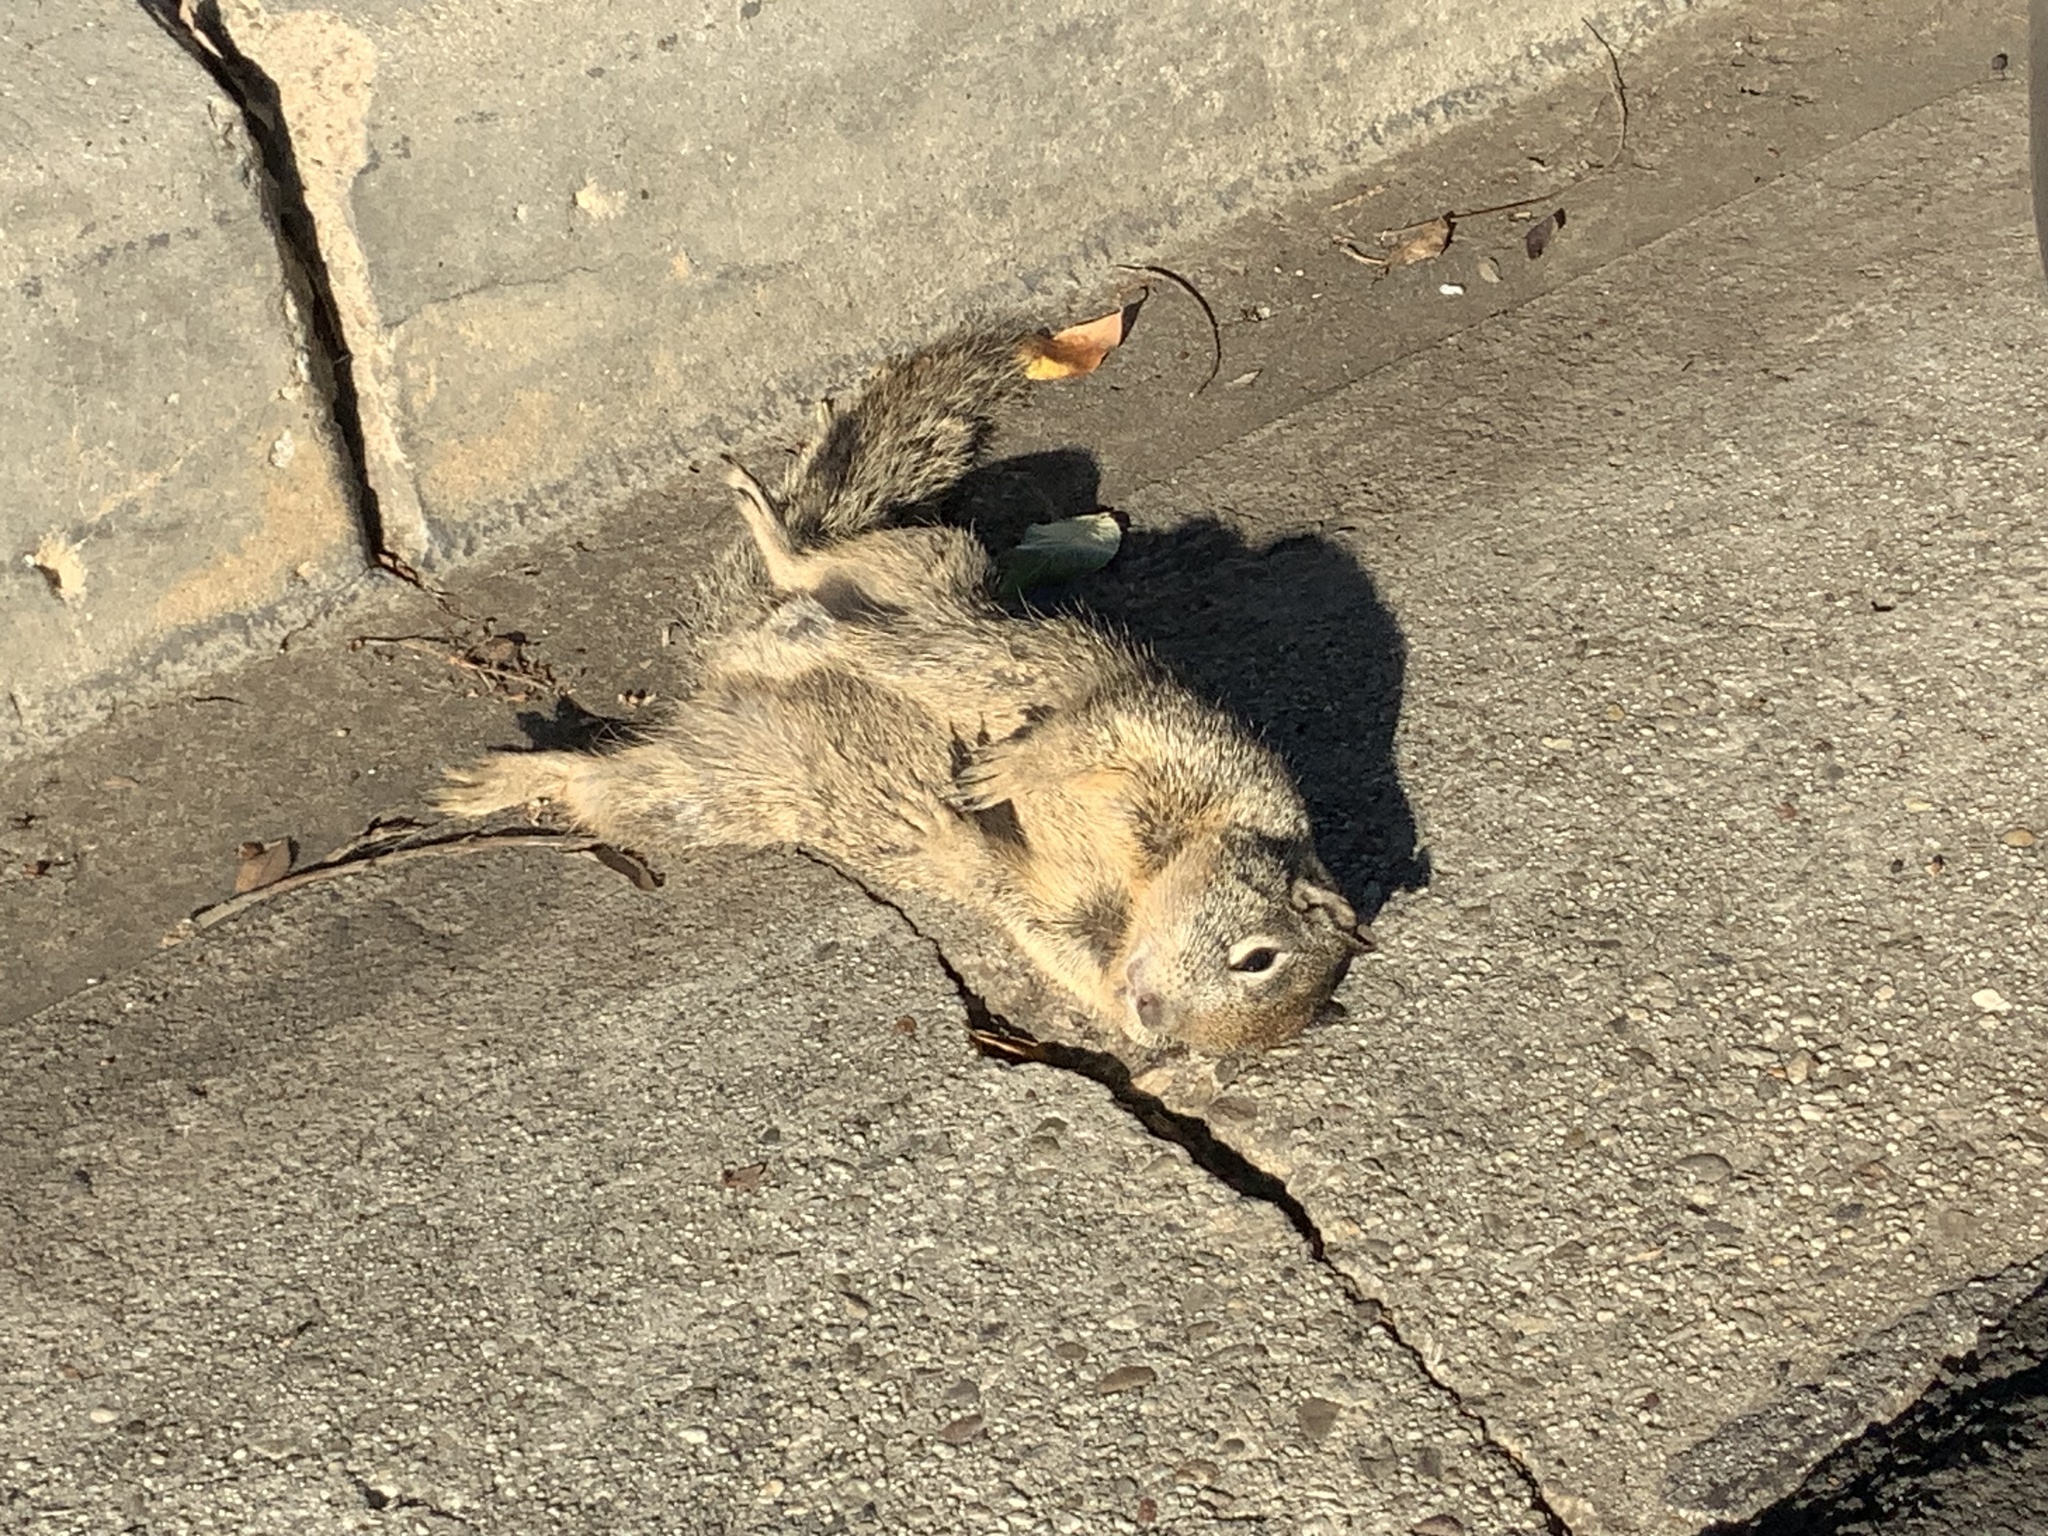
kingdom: Animalia
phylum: Chordata
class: Mammalia
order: Rodentia
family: Sciuridae
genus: Otospermophilus
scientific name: Otospermophilus beecheyi
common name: California ground squirrel
